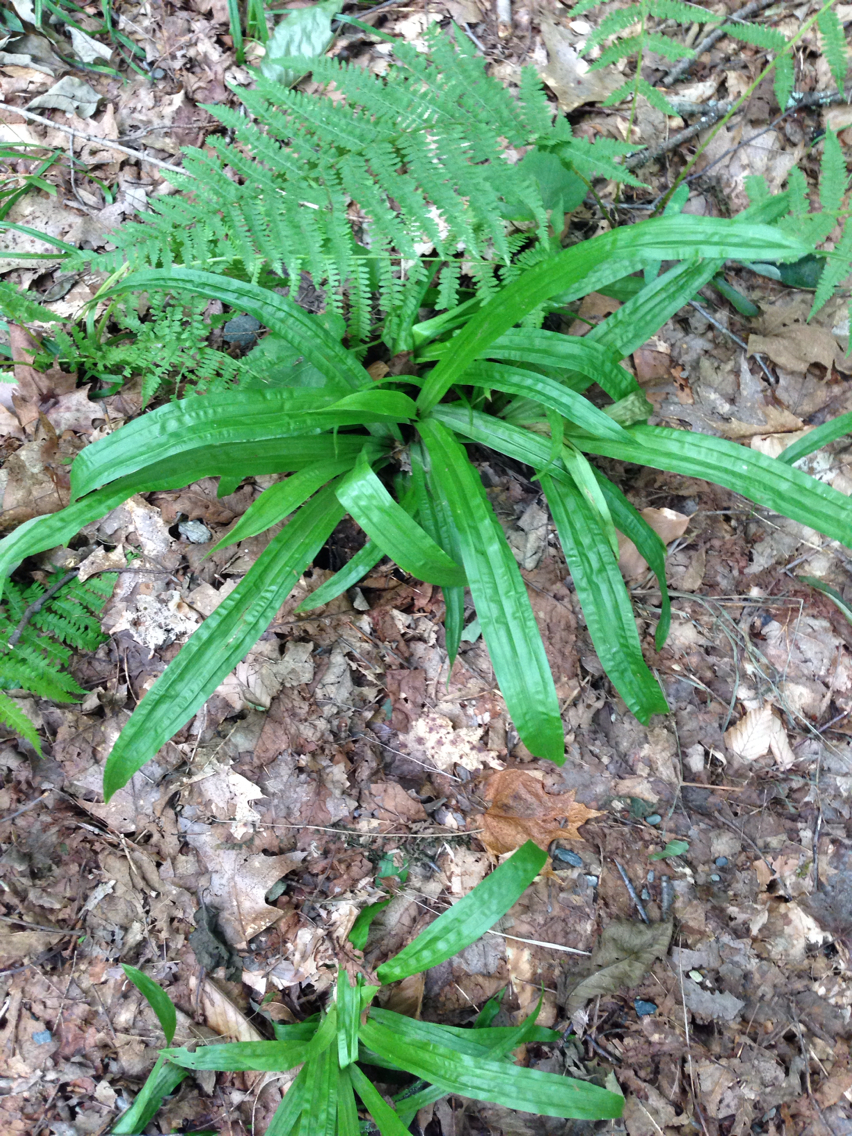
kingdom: Plantae
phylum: Tracheophyta
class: Liliopsida
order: Poales
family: Cyperaceae
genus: Carex
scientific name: Carex plantaginea
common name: Plantain-leaved sedge
